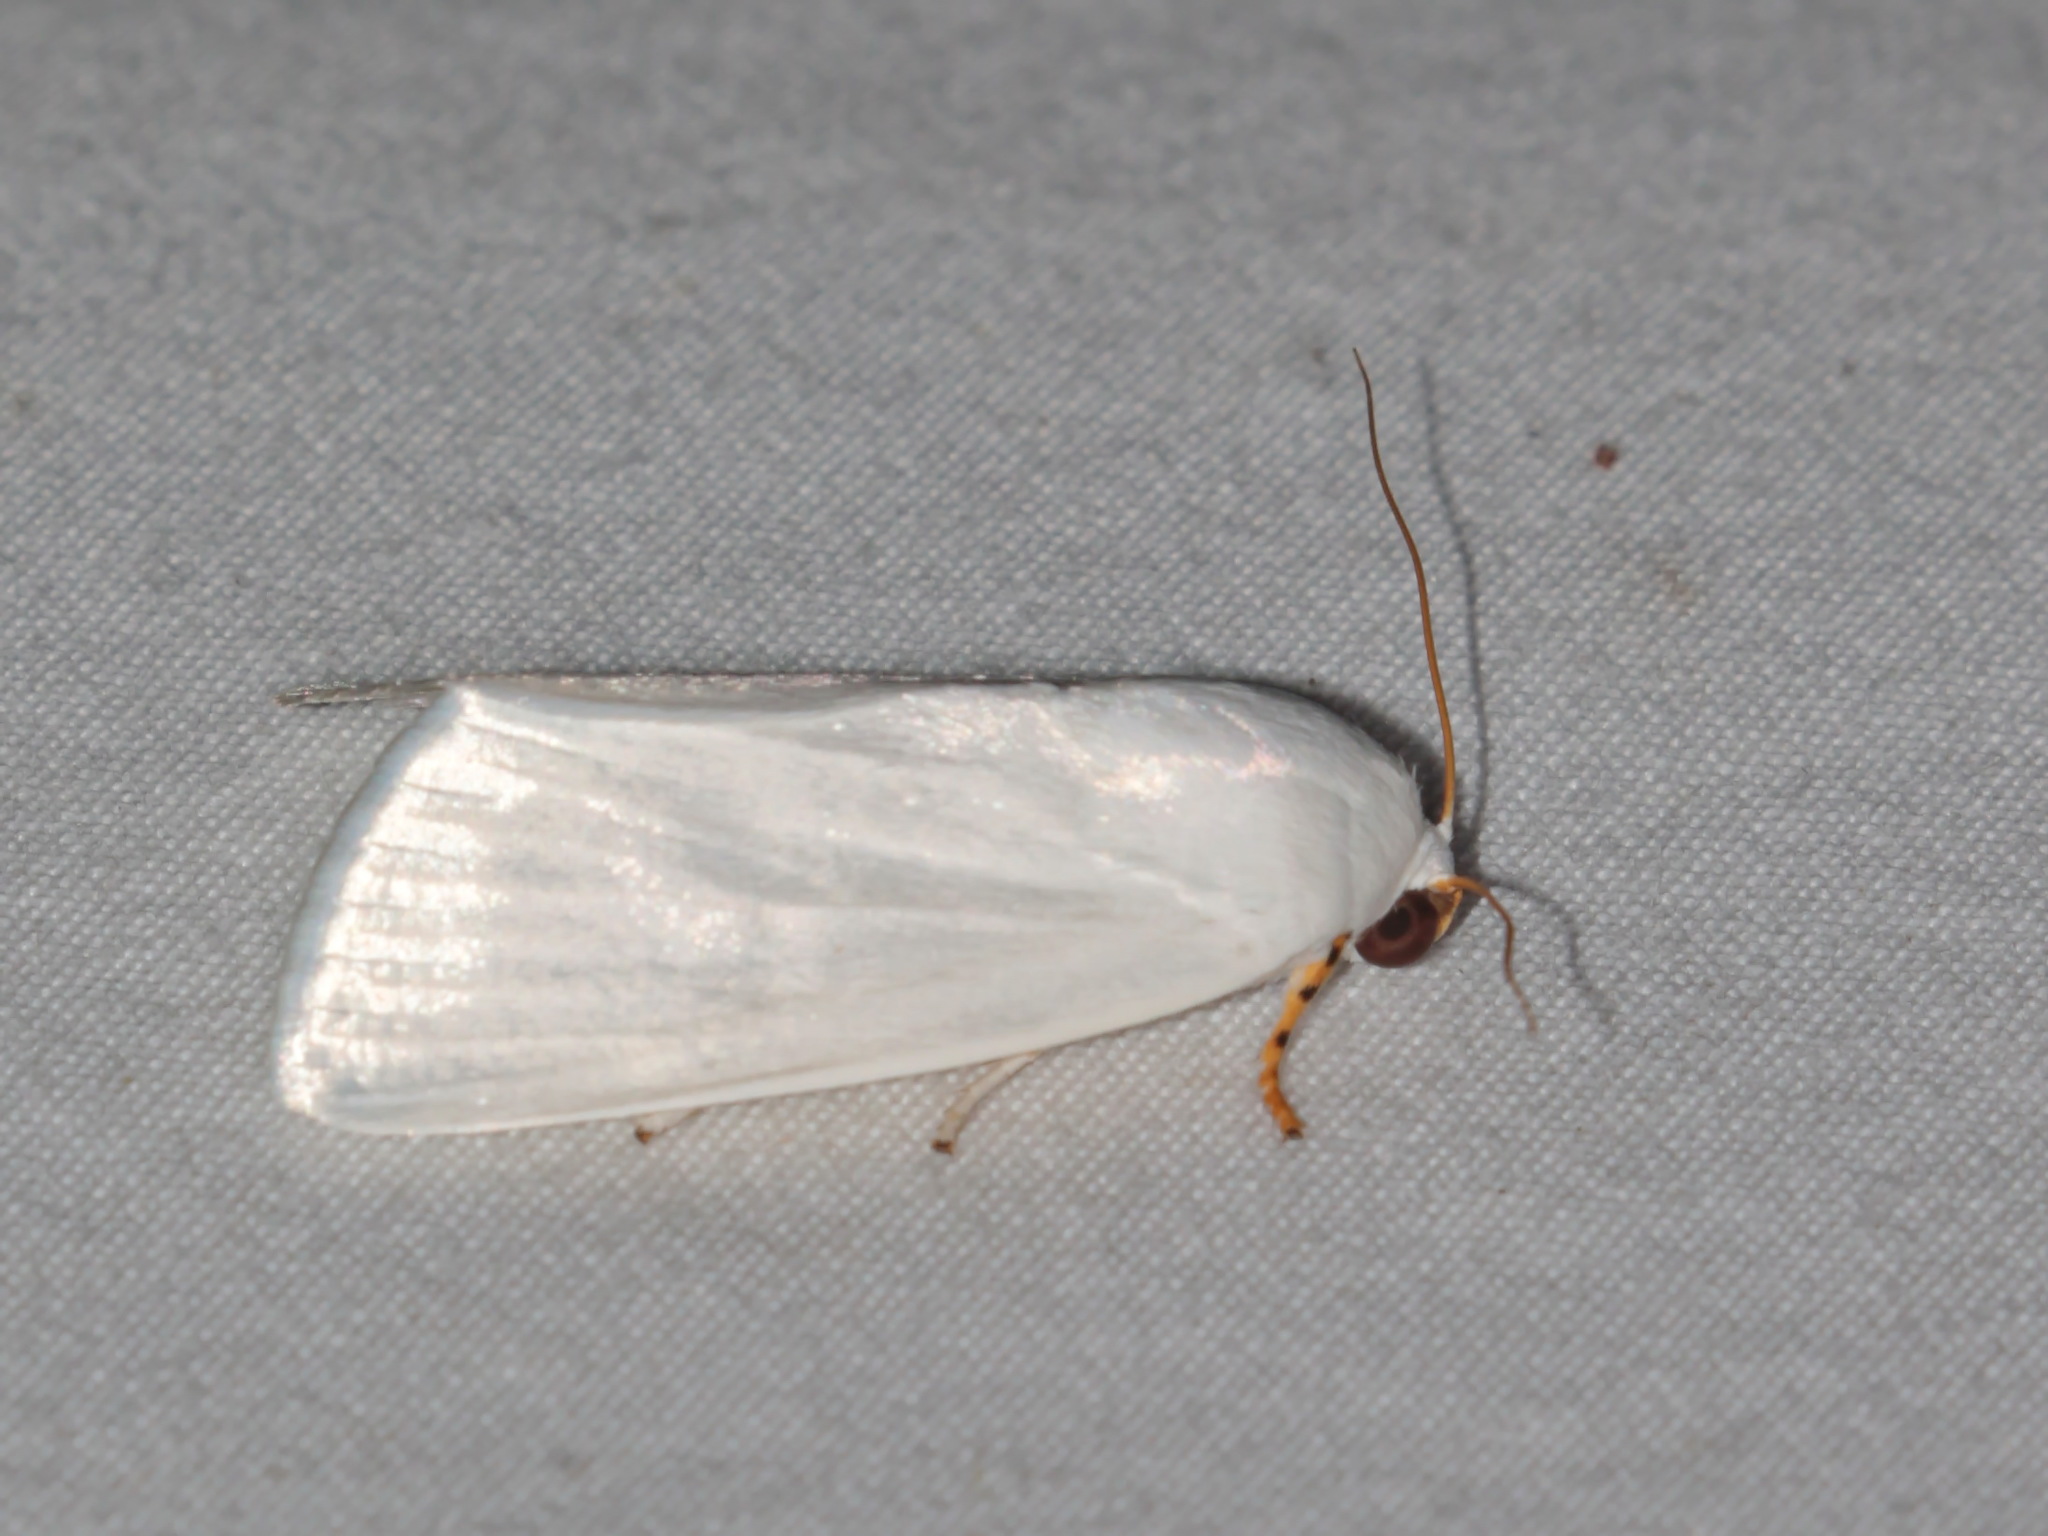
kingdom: Animalia
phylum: Arthropoda
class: Insecta
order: Lepidoptera
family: Noctuidae
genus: Chasmina
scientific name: Chasmina candida
